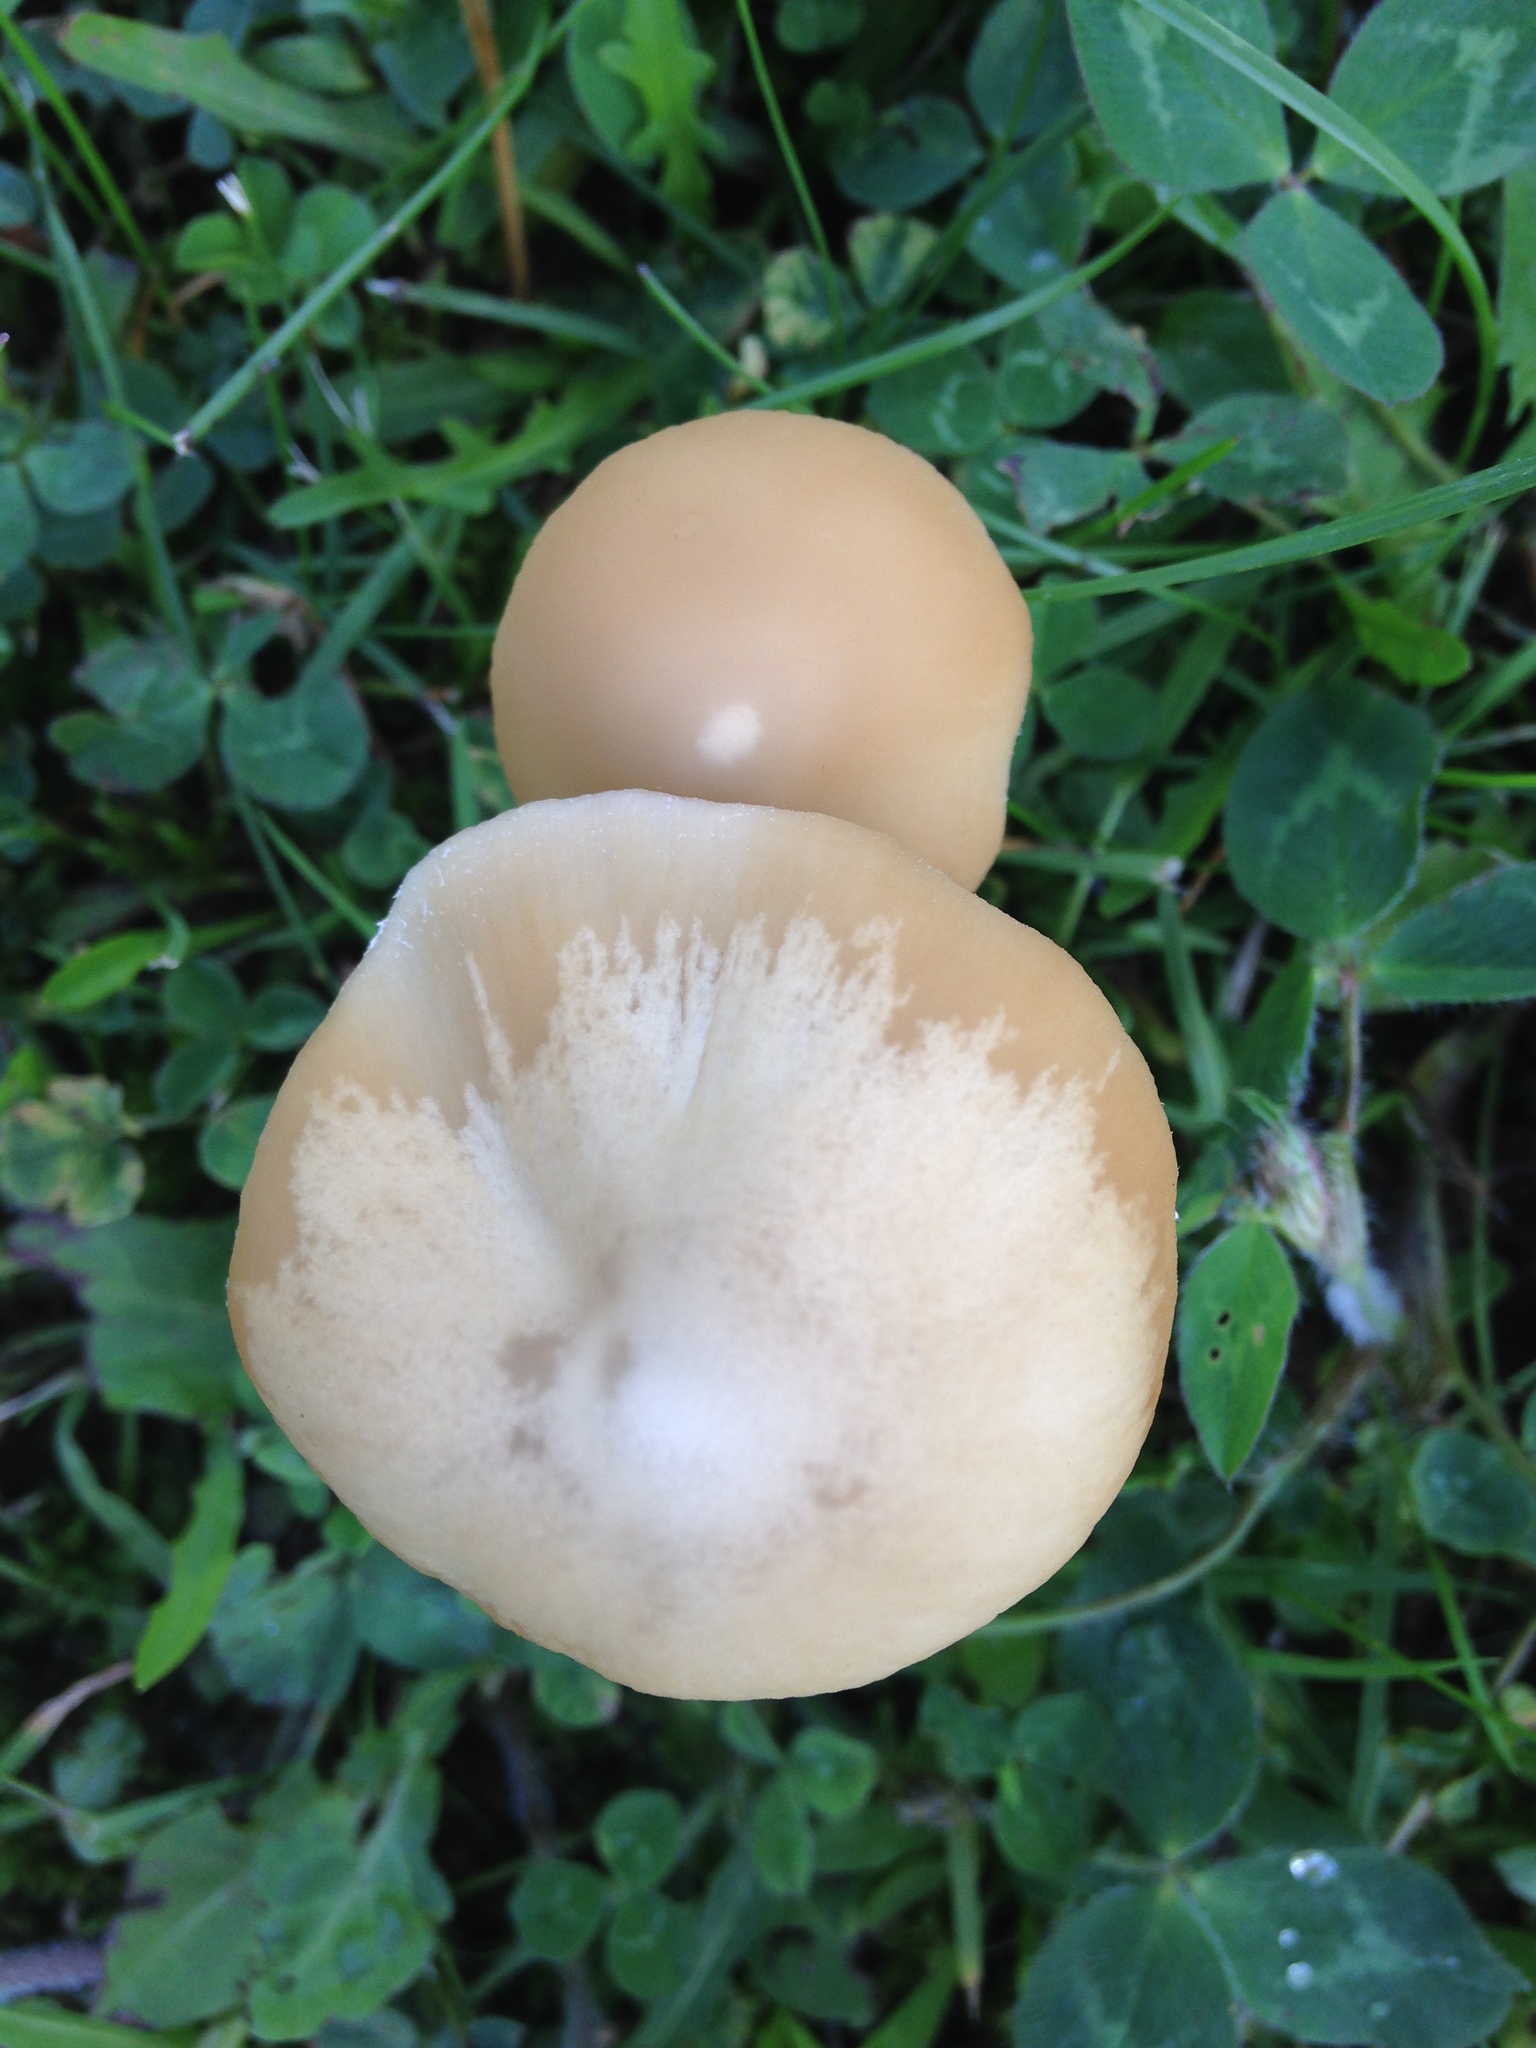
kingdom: Fungi
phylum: Basidiomycota
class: Agaricomycetes
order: Agaricales
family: Psathyrellaceae
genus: Candolleomyces
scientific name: Candolleomyces candolleanus
